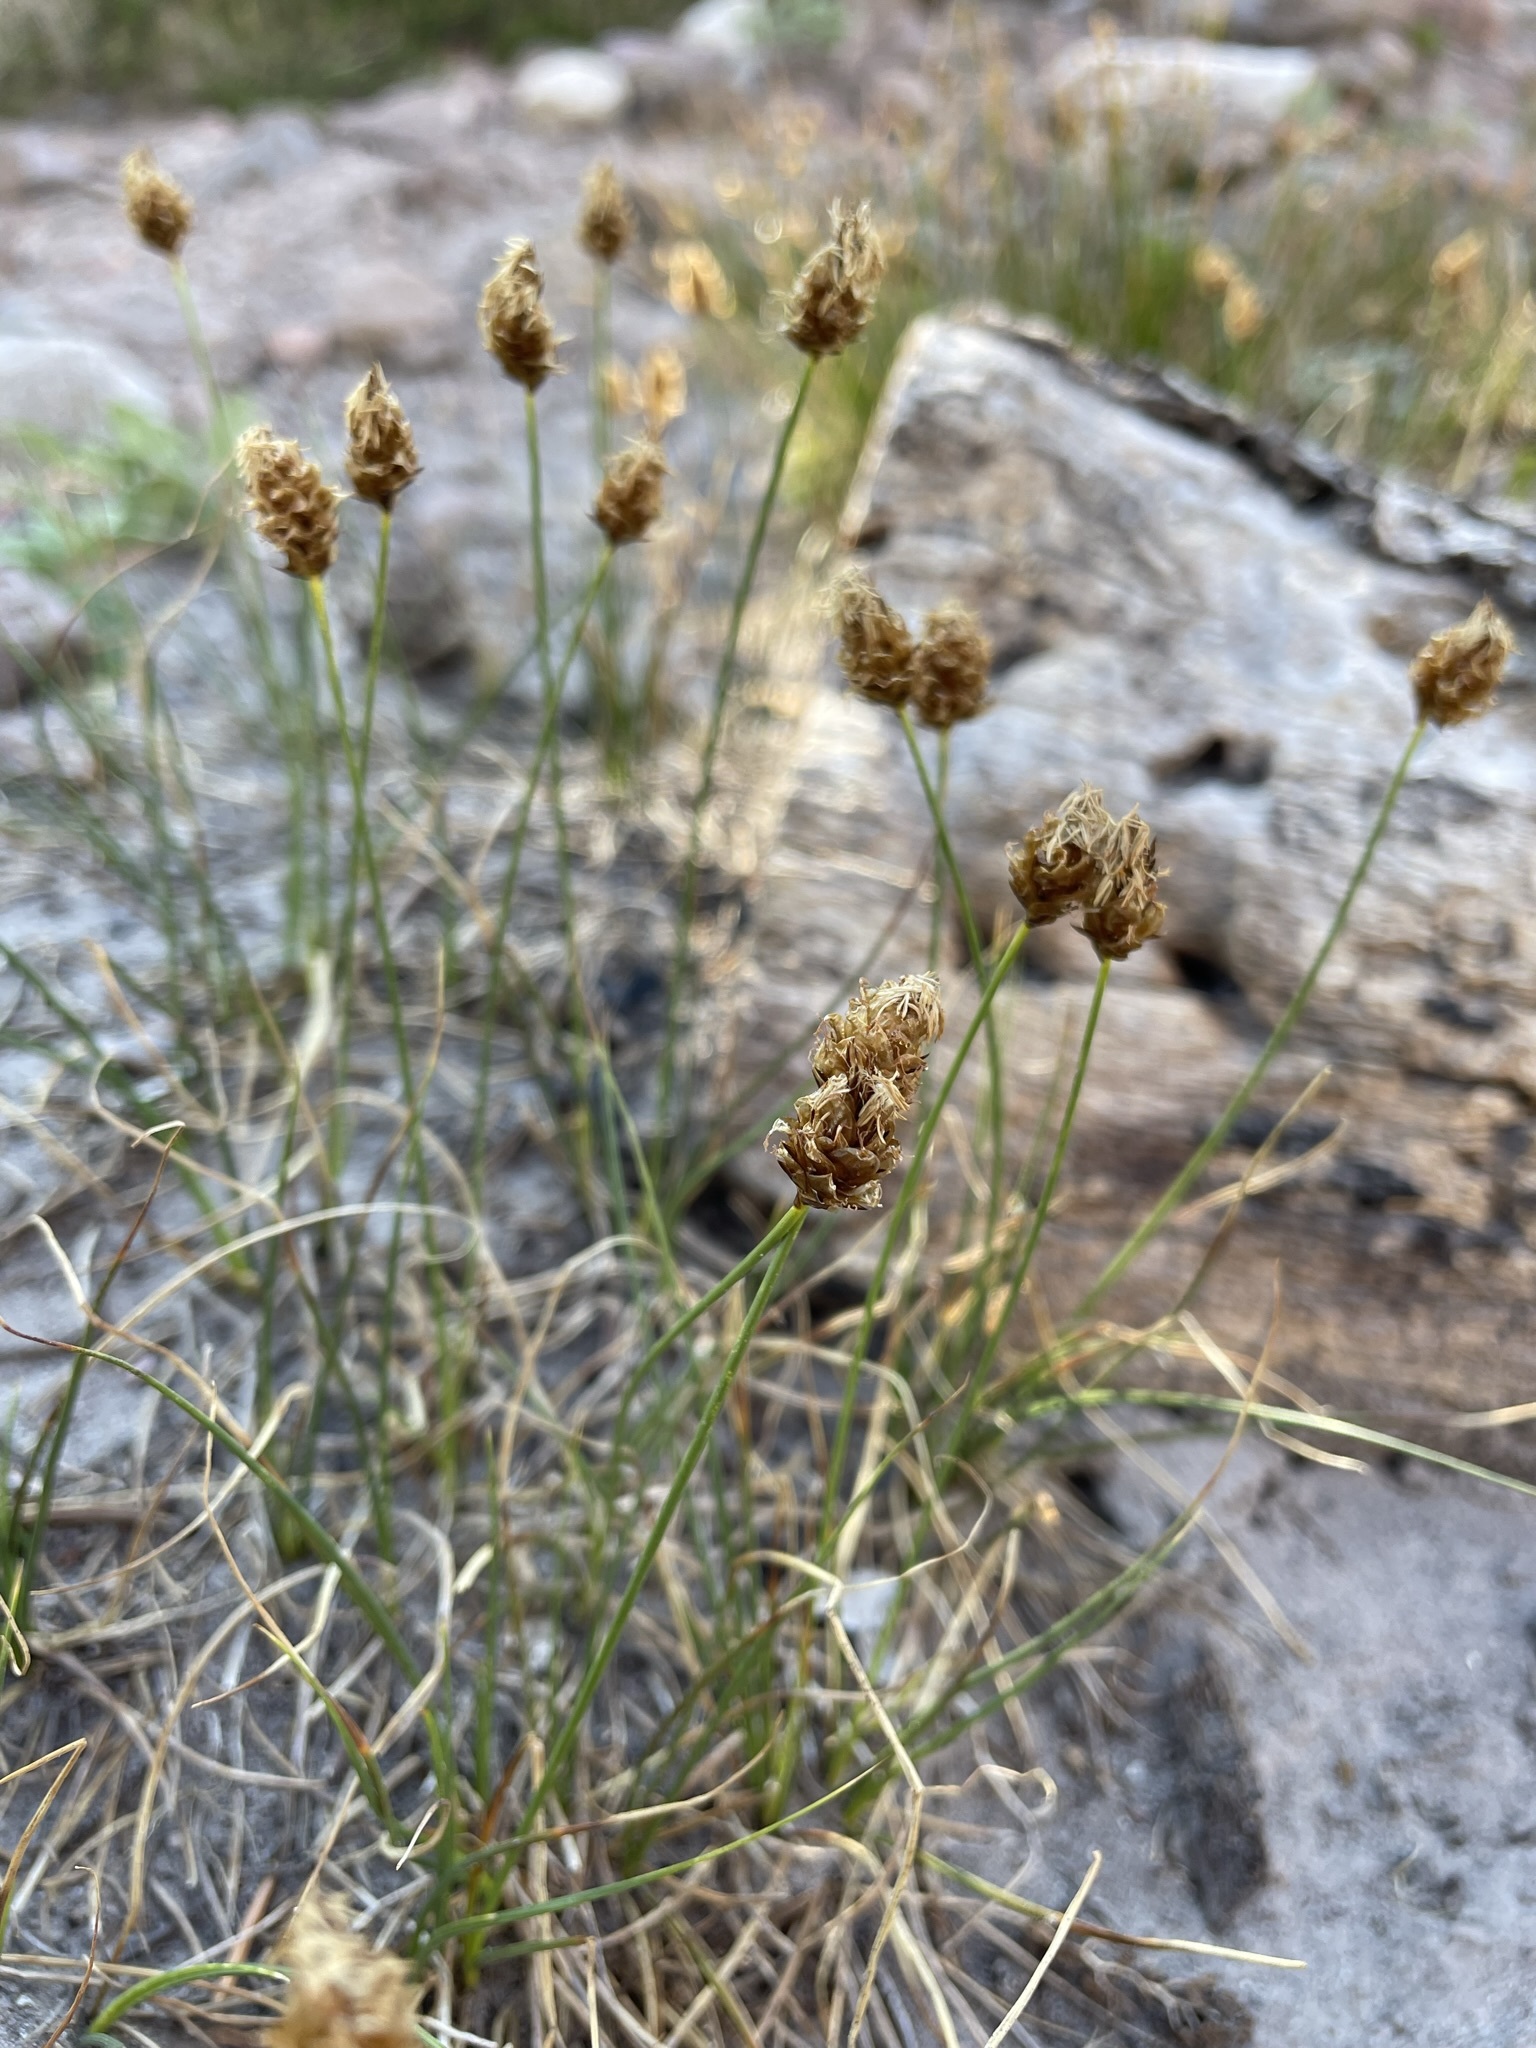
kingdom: Plantae
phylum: Tracheophyta
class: Liliopsida
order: Poales
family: Cyperaceae
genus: Carex
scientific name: Carex breweri
